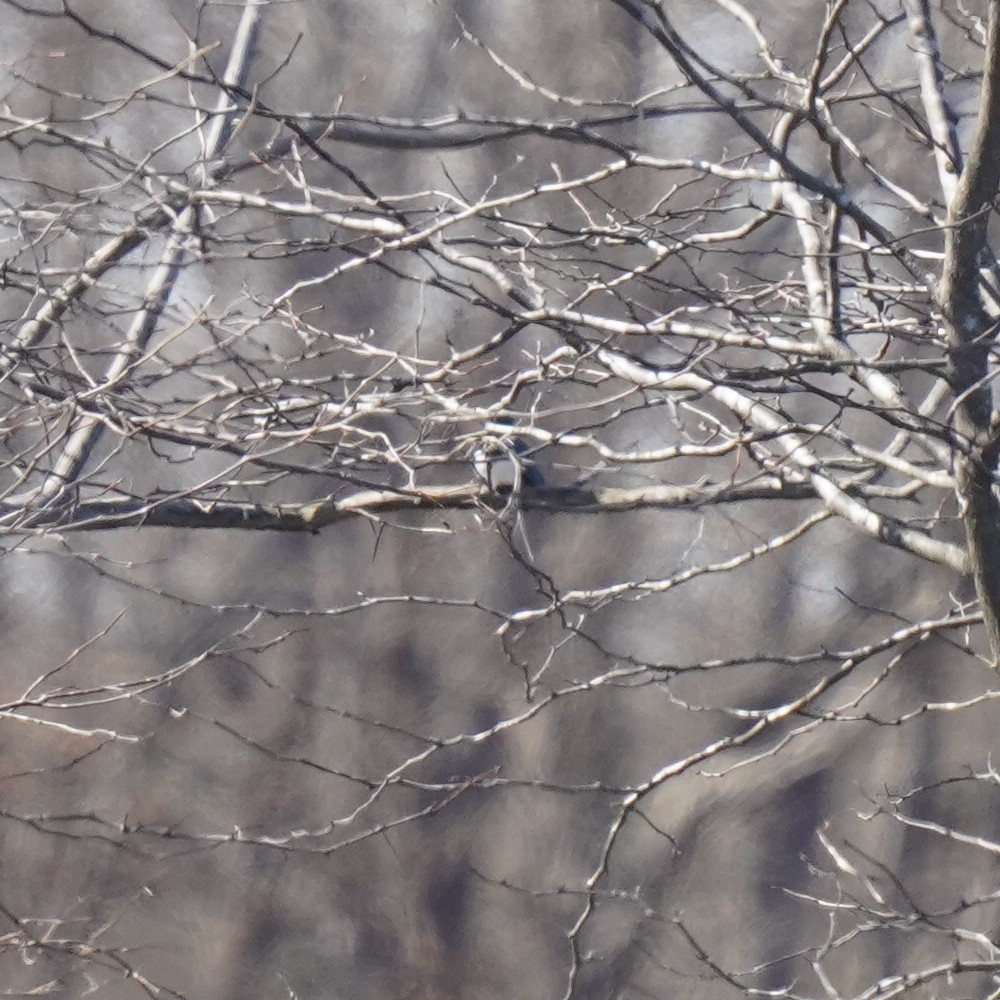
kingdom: Animalia
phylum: Chordata
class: Aves
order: Coraciiformes
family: Alcedinidae
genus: Megaceryle
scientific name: Megaceryle alcyon
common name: Belted kingfisher
